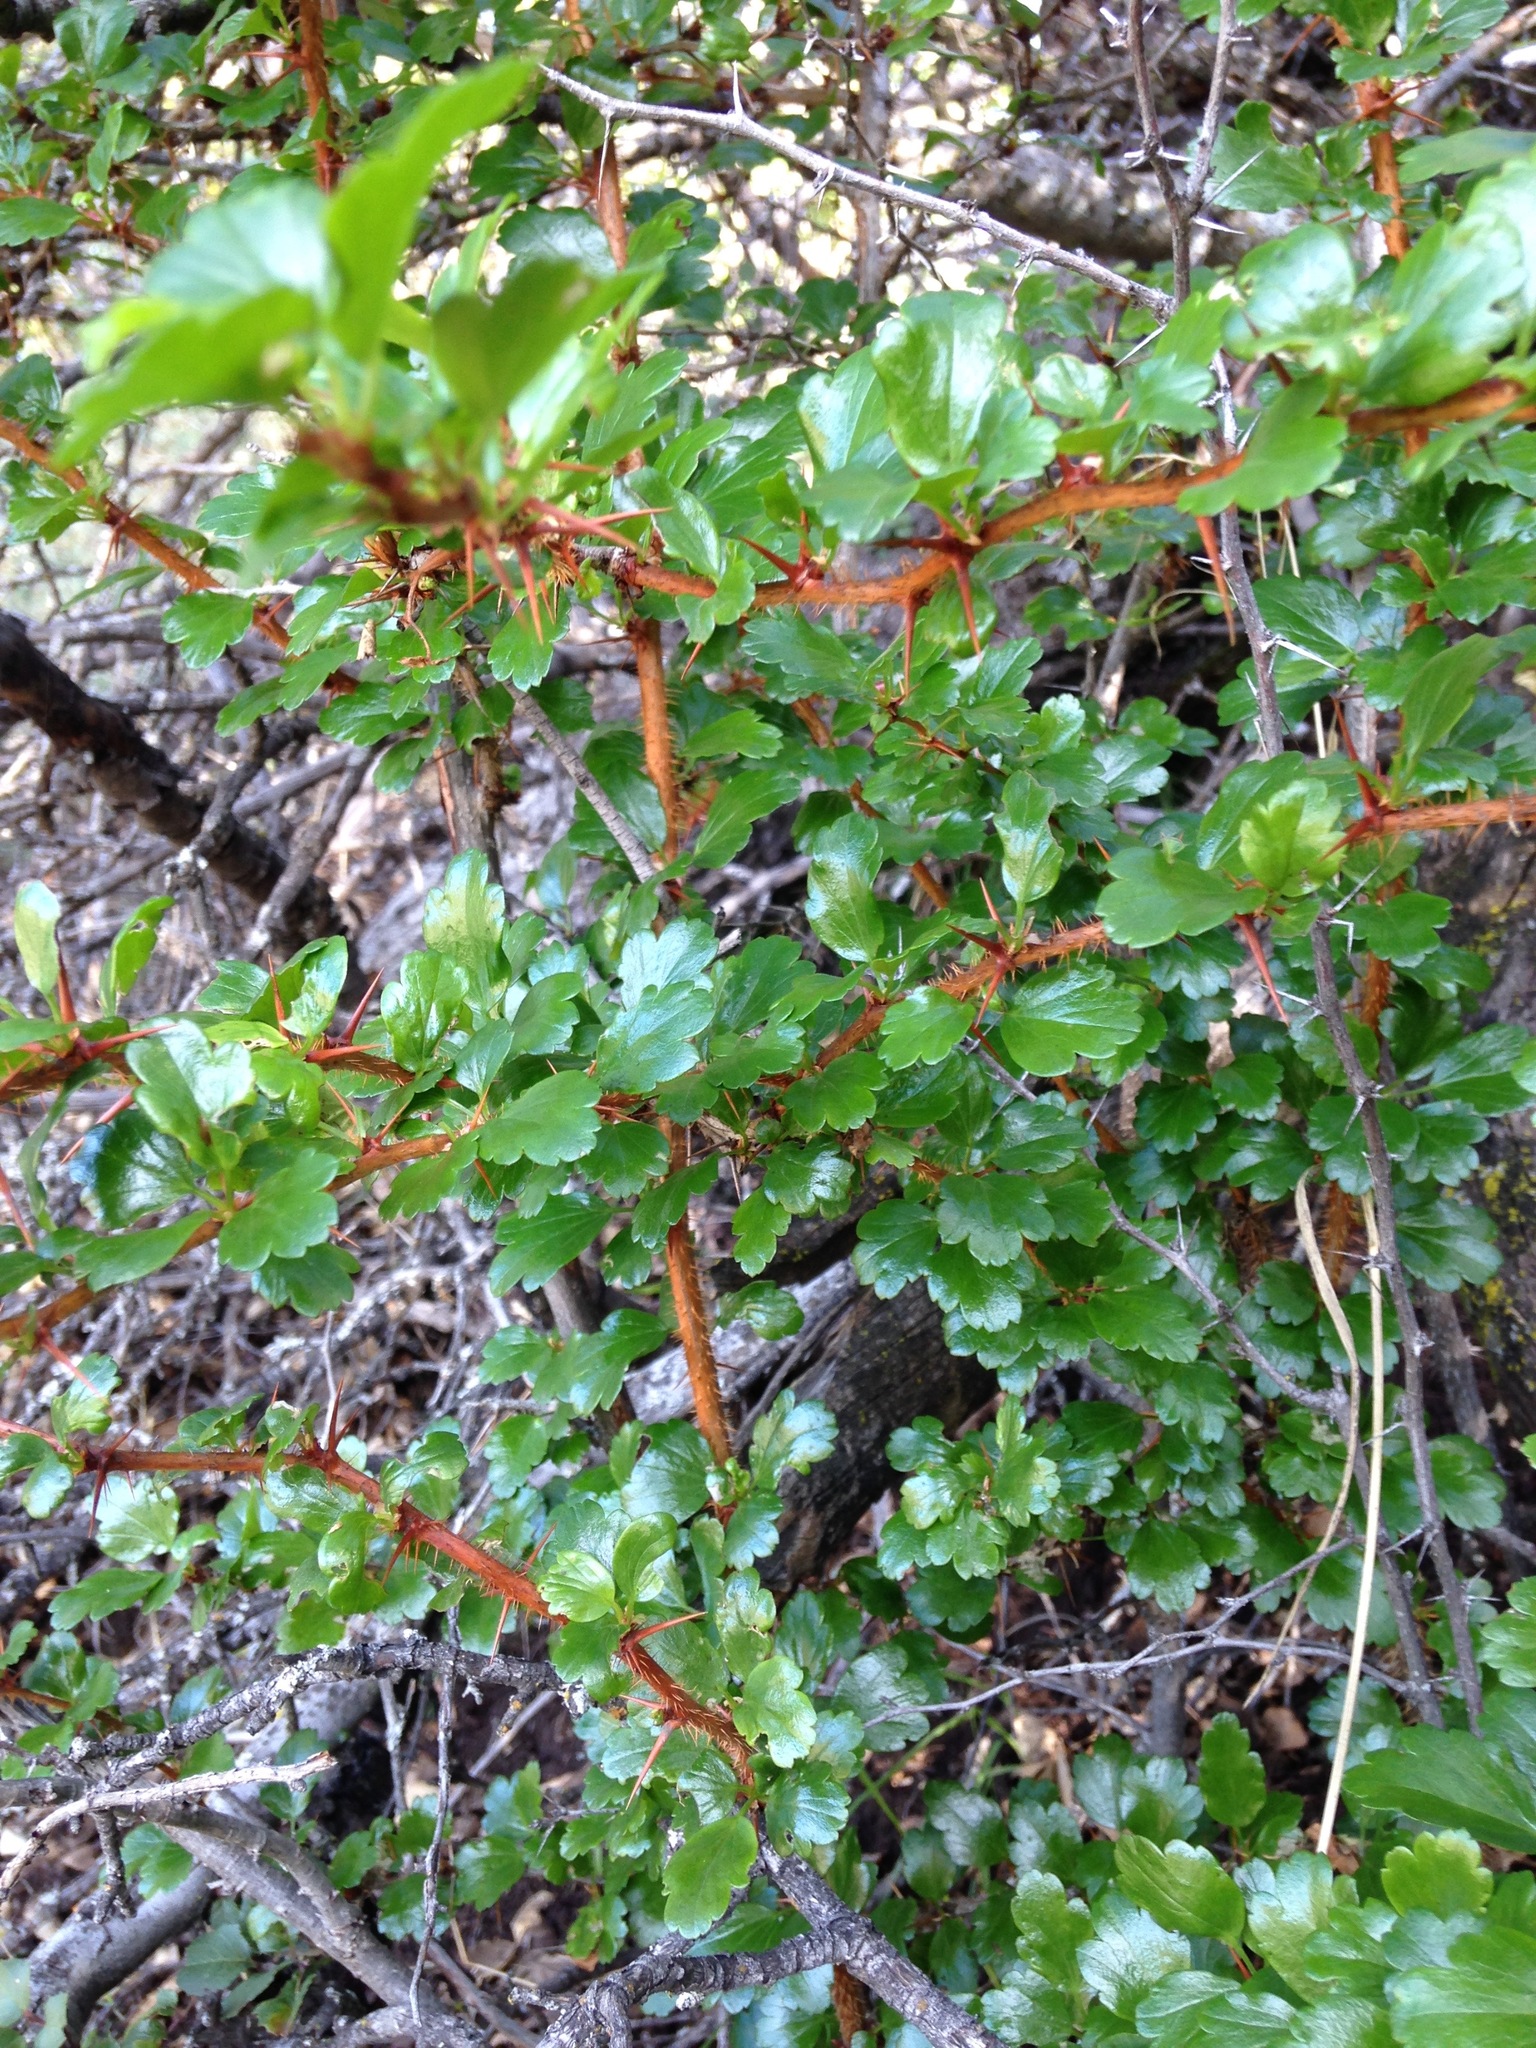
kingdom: Plantae
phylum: Tracheophyta
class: Magnoliopsida
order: Saxifragales
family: Grossulariaceae
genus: Ribes
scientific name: Ribes speciosum
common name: Fuchsia-flower gooseberry
